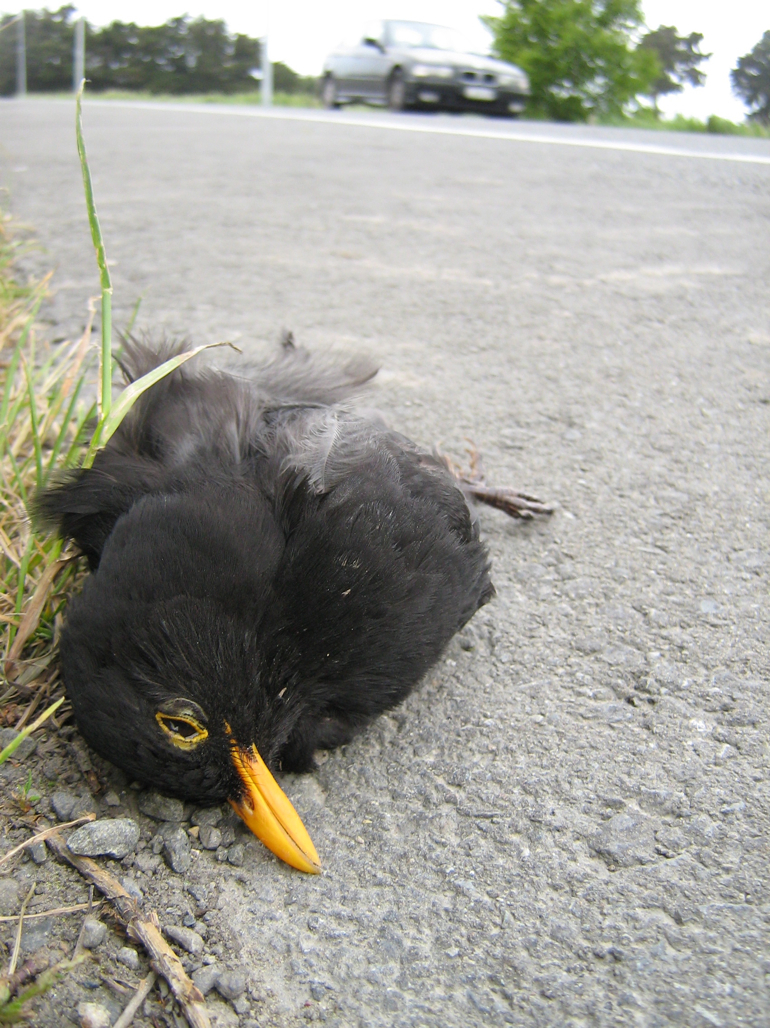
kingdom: Animalia
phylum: Chordata
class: Aves
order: Passeriformes
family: Turdidae
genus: Turdus
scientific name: Turdus merula
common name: Common blackbird
